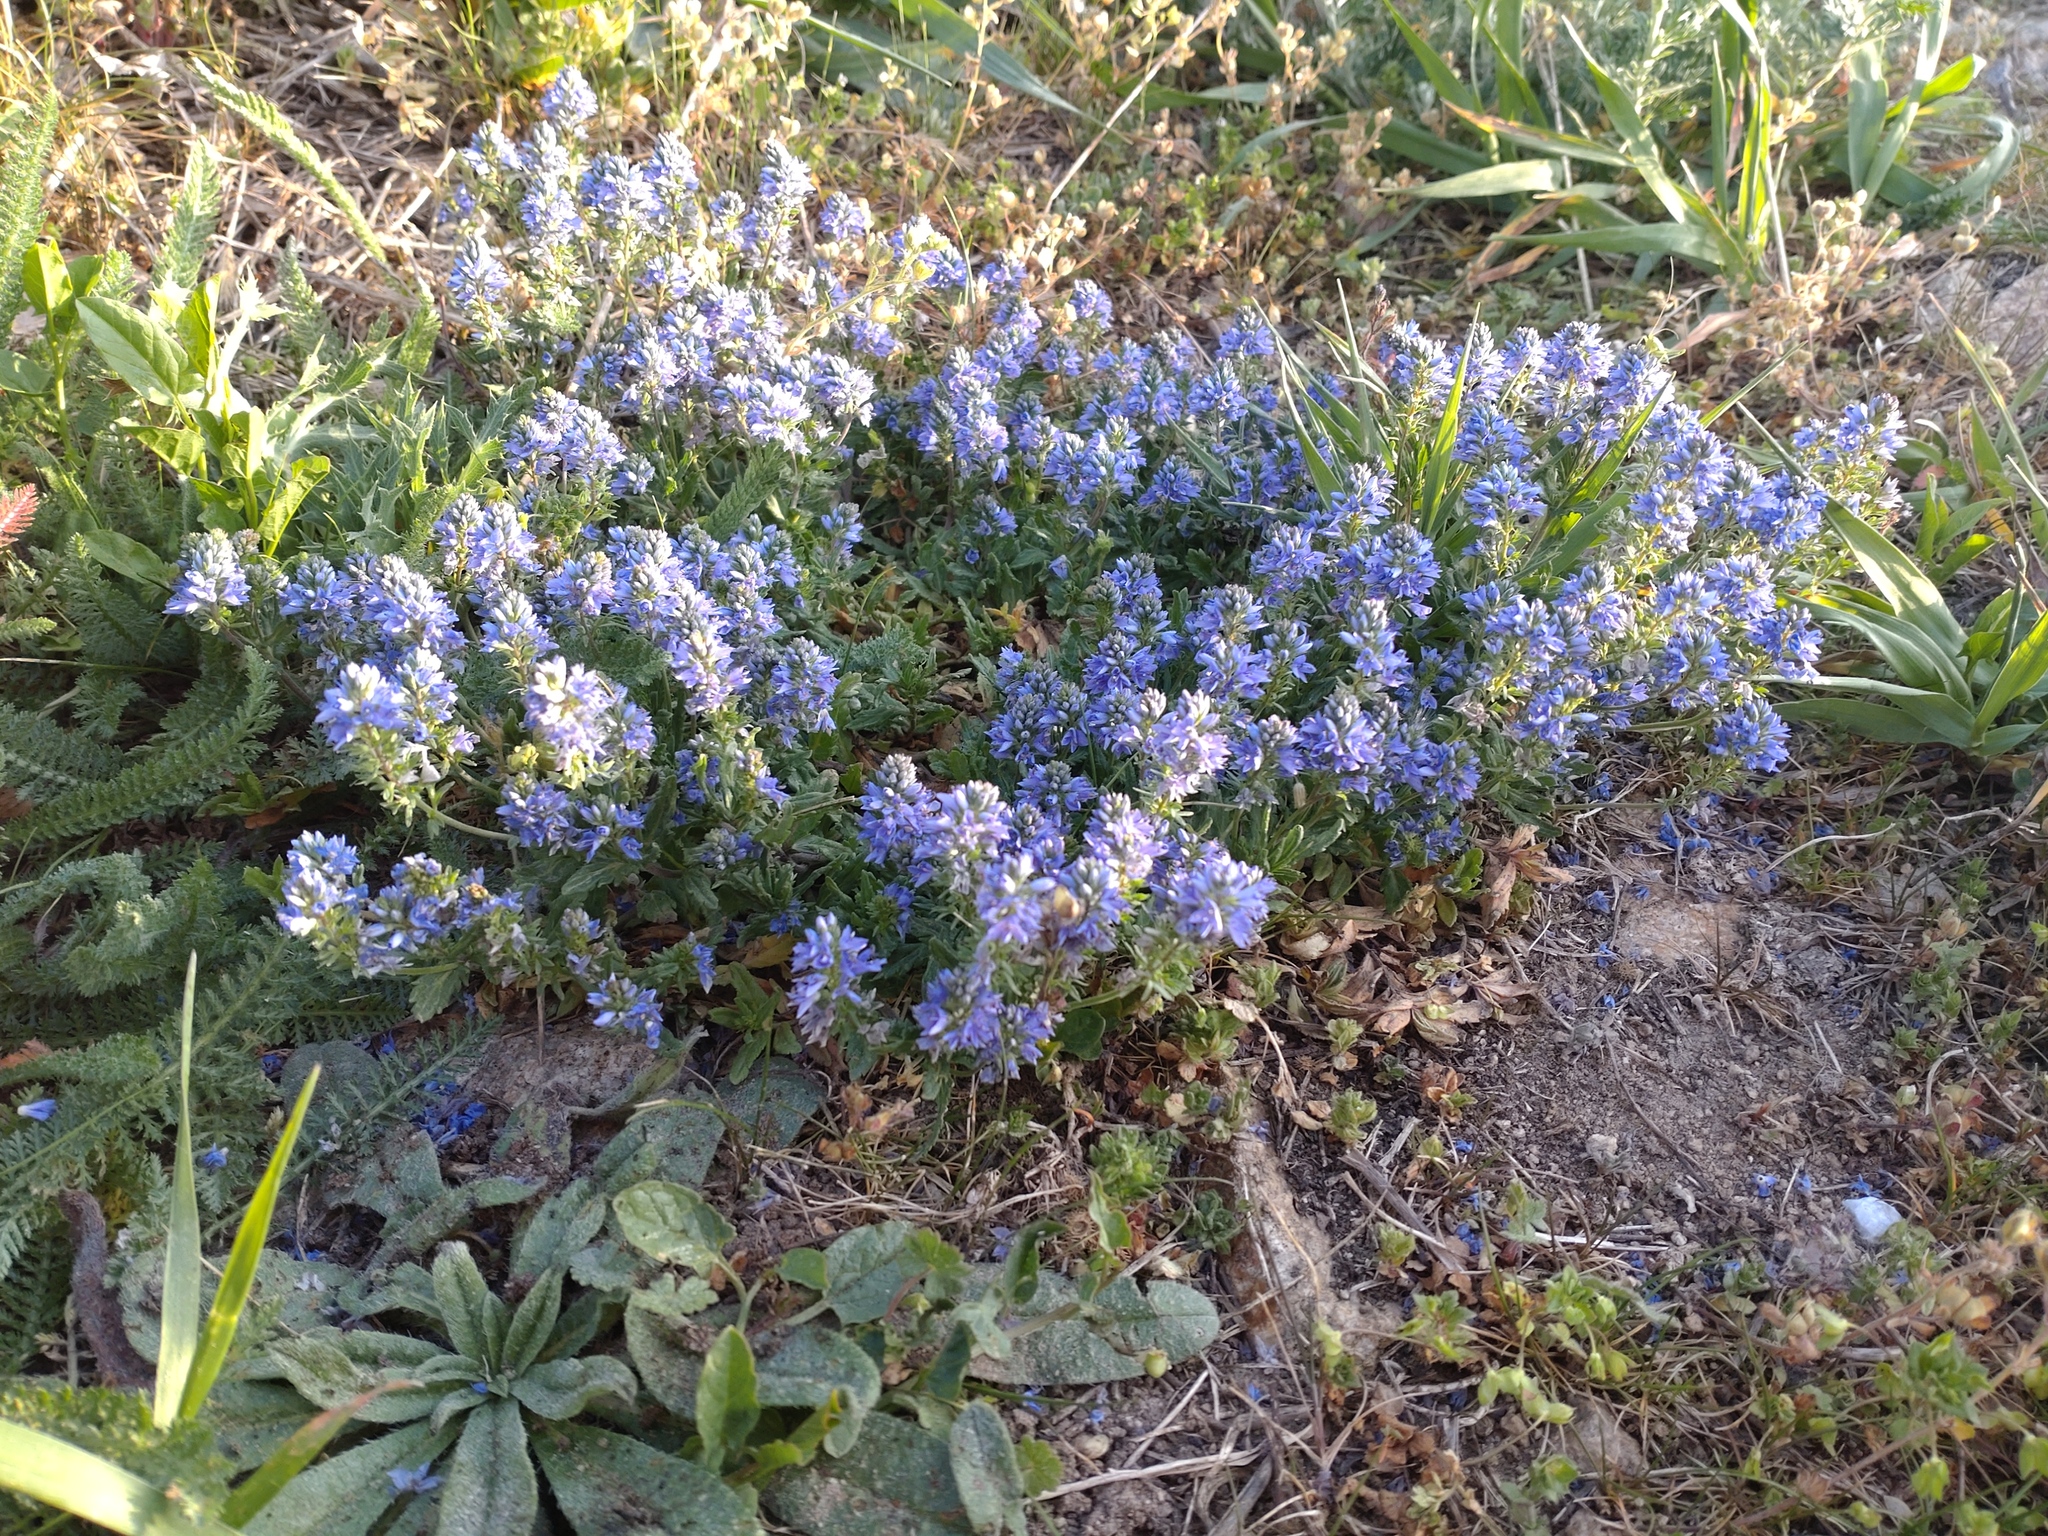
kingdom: Plantae
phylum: Tracheophyta
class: Magnoliopsida
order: Lamiales
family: Plantaginaceae
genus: Veronica
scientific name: Veronica prostrata
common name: Prostrate speedwell
